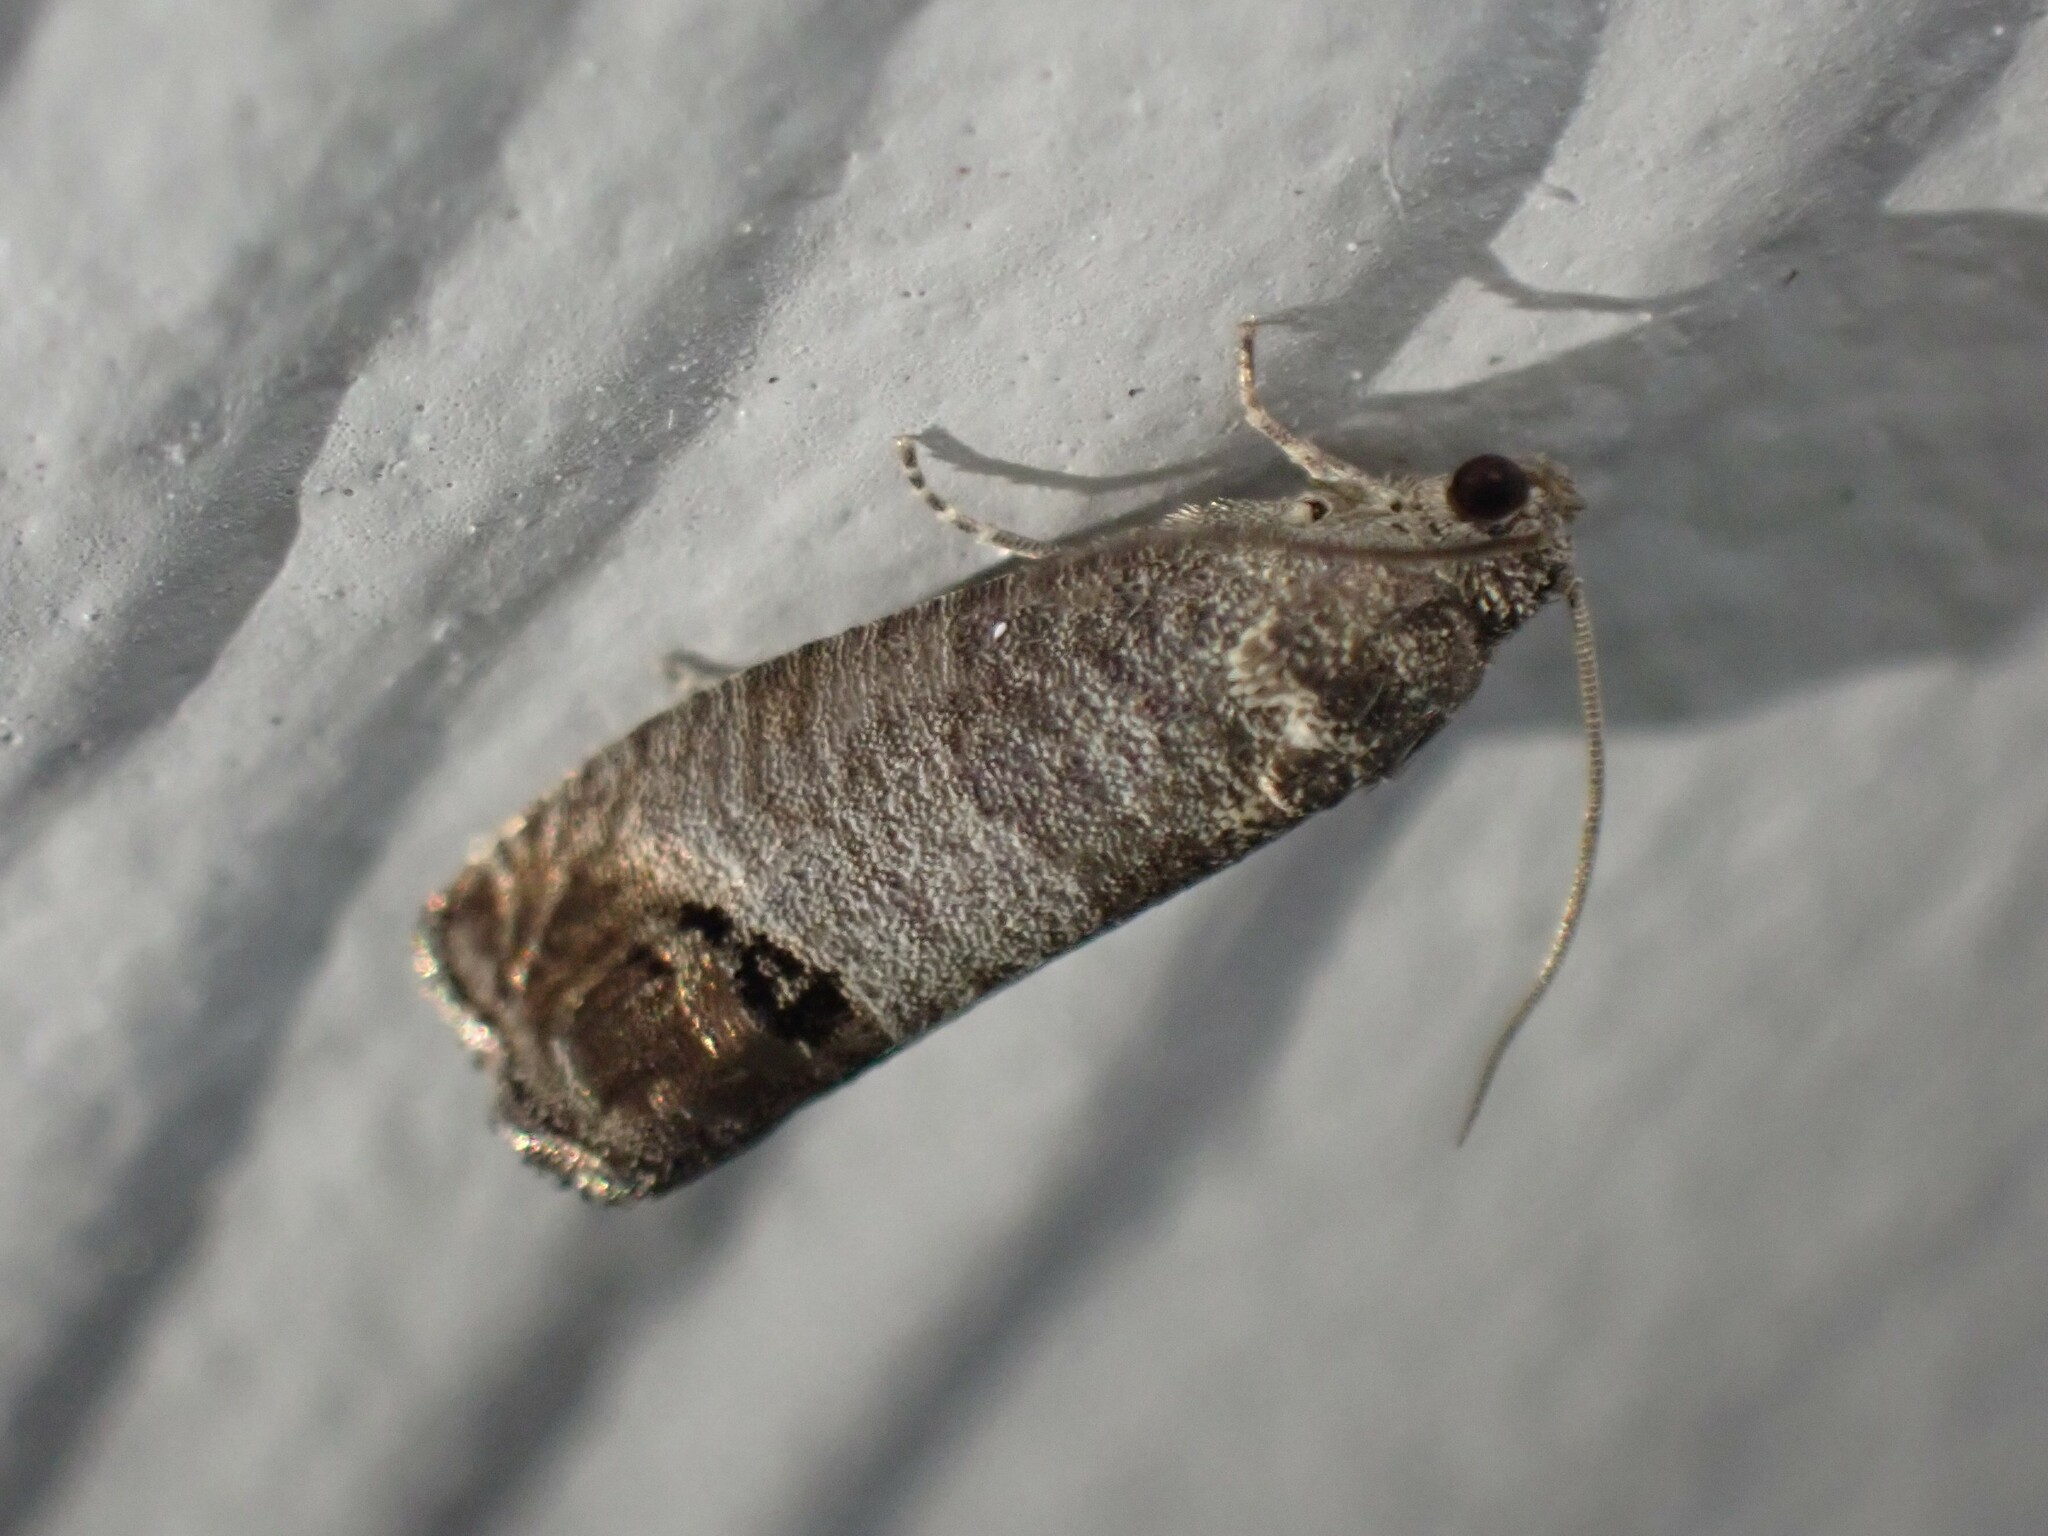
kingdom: Animalia
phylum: Arthropoda
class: Insecta
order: Lepidoptera
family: Tortricidae
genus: Cydia
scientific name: Cydia pomonella
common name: Codling moth
